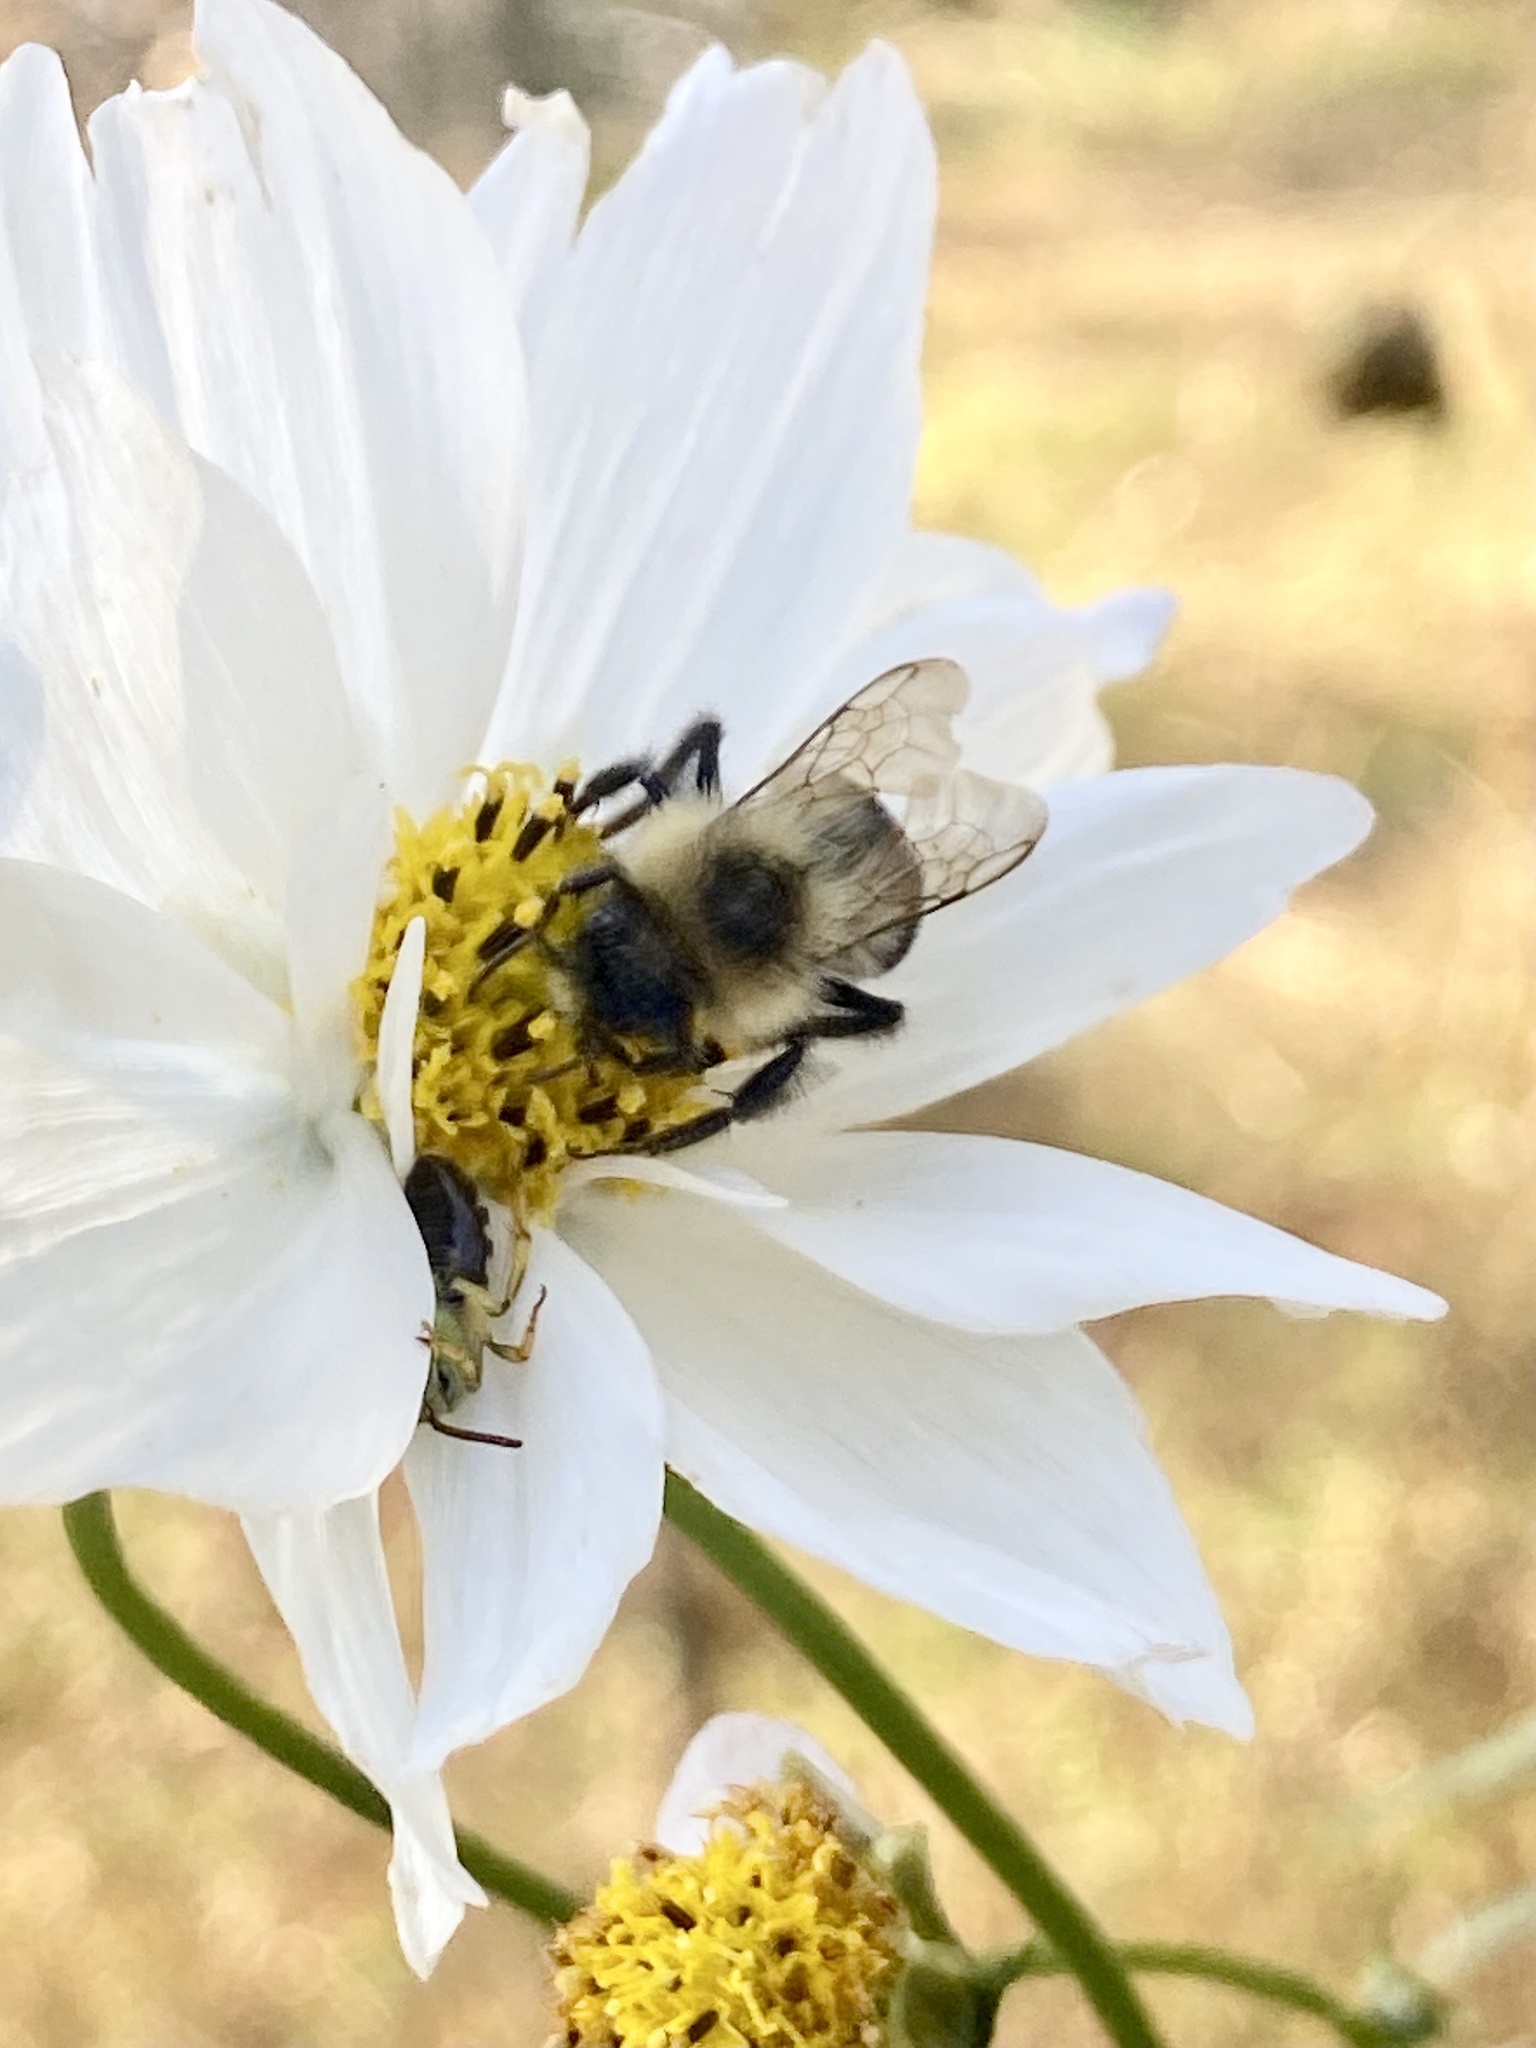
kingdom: Animalia
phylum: Arthropoda
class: Insecta
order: Hymenoptera
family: Apidae
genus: Bombus
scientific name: Bombus impatiens
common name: Common eastern bumble bee
